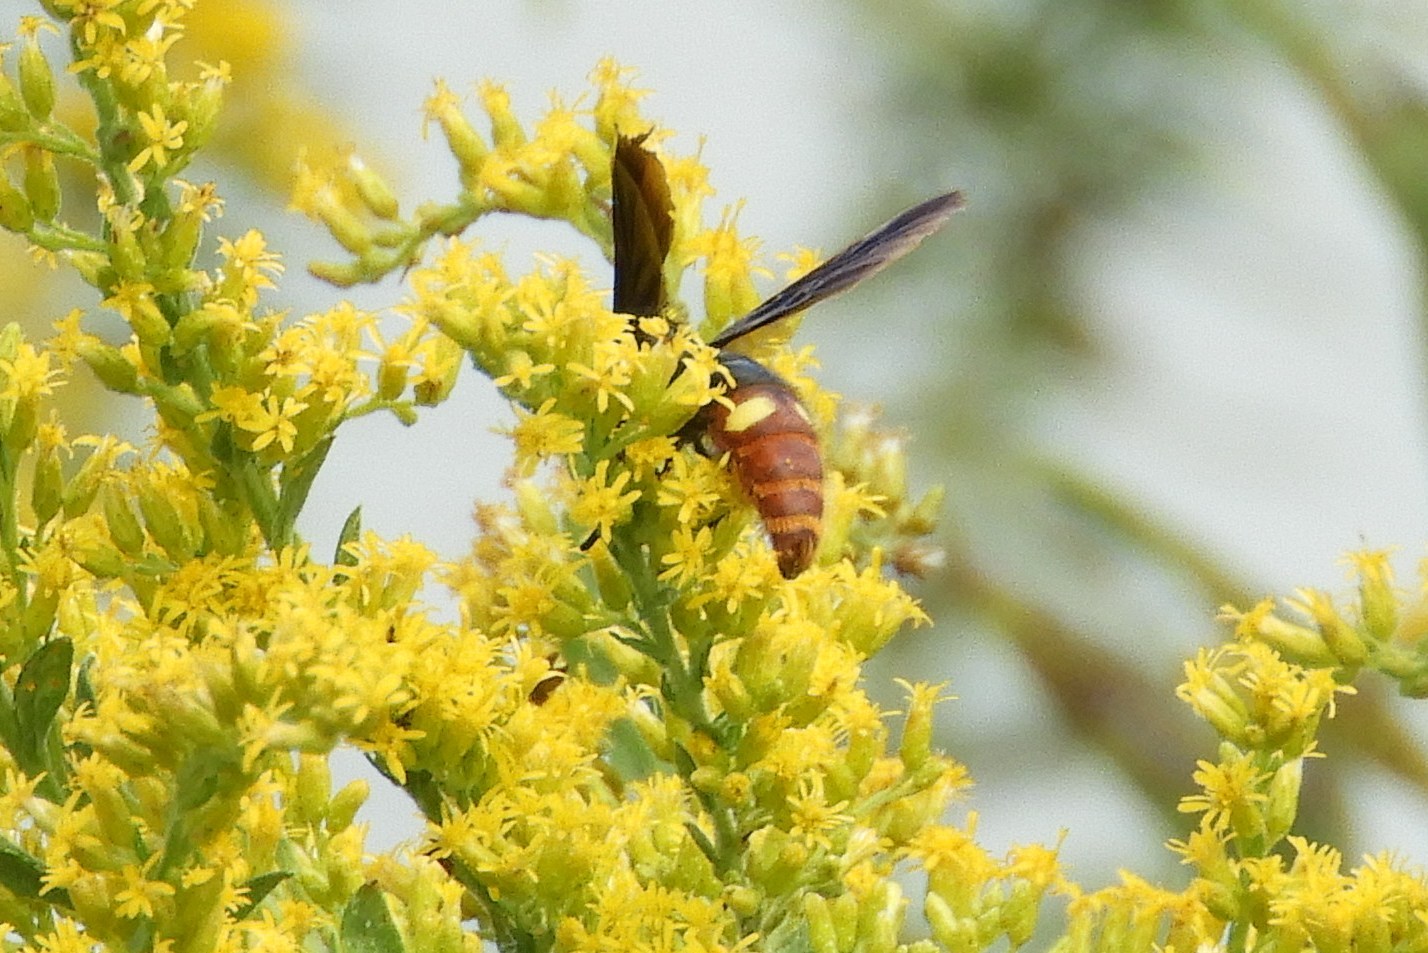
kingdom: Animalia
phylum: Arthropoda
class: Insecta
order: Hymenoptera
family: Scoliidae
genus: Scolia
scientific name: Scolia dubia
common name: Blue-winged scoliid wasp
